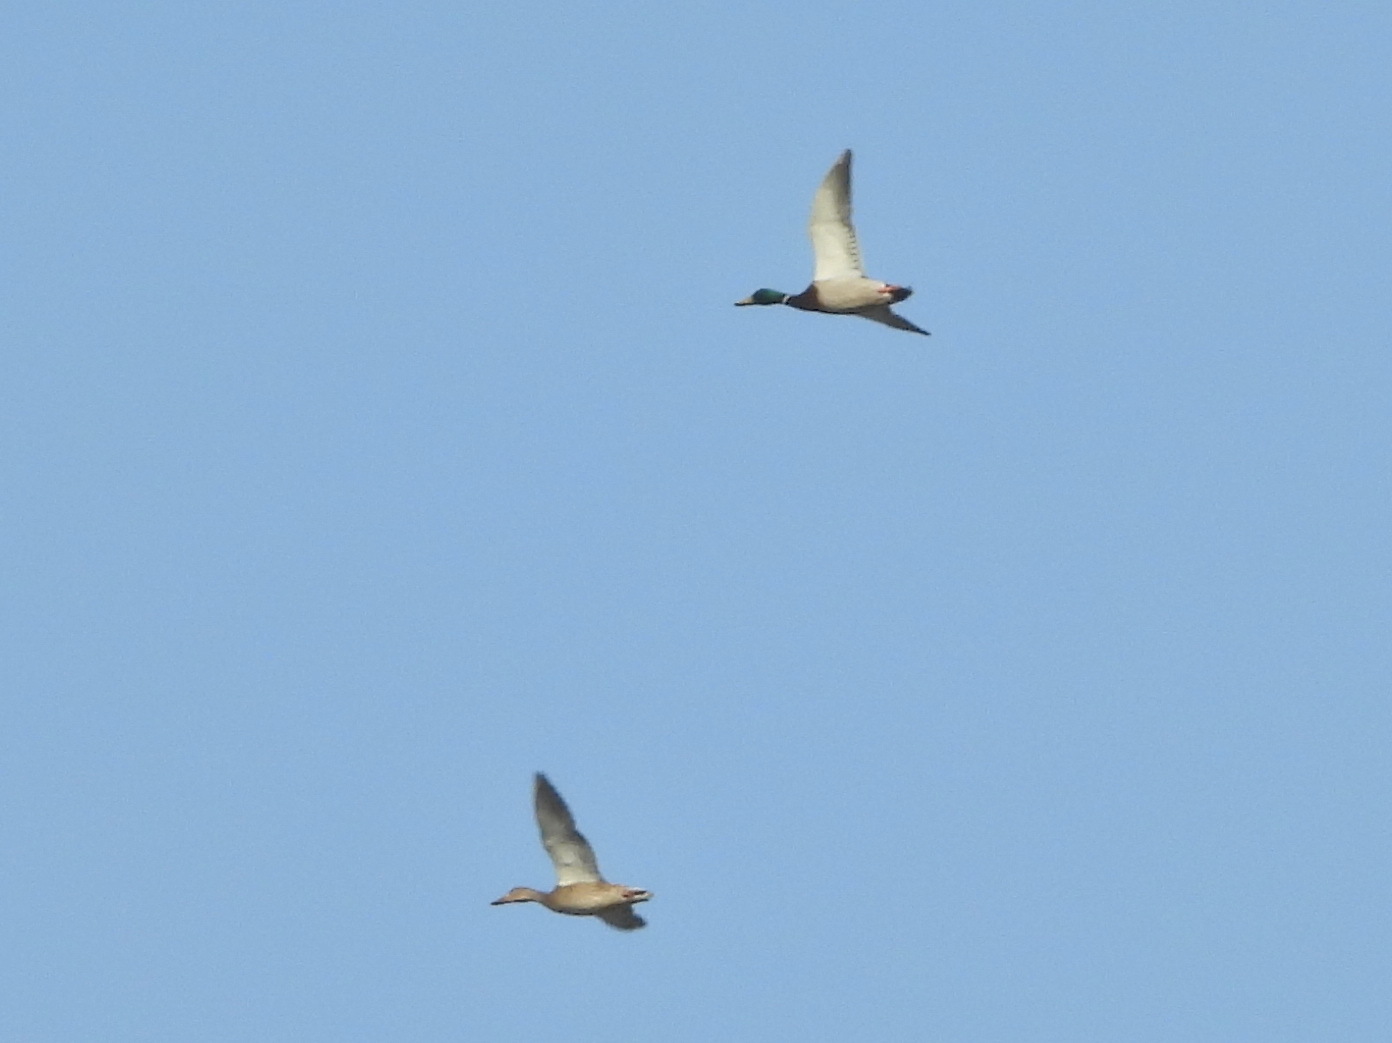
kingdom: Animalia
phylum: Chordata
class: Aves
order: Anseriformes
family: Anatidae
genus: Anas
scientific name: Anas platyrhynchos
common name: Mallard
